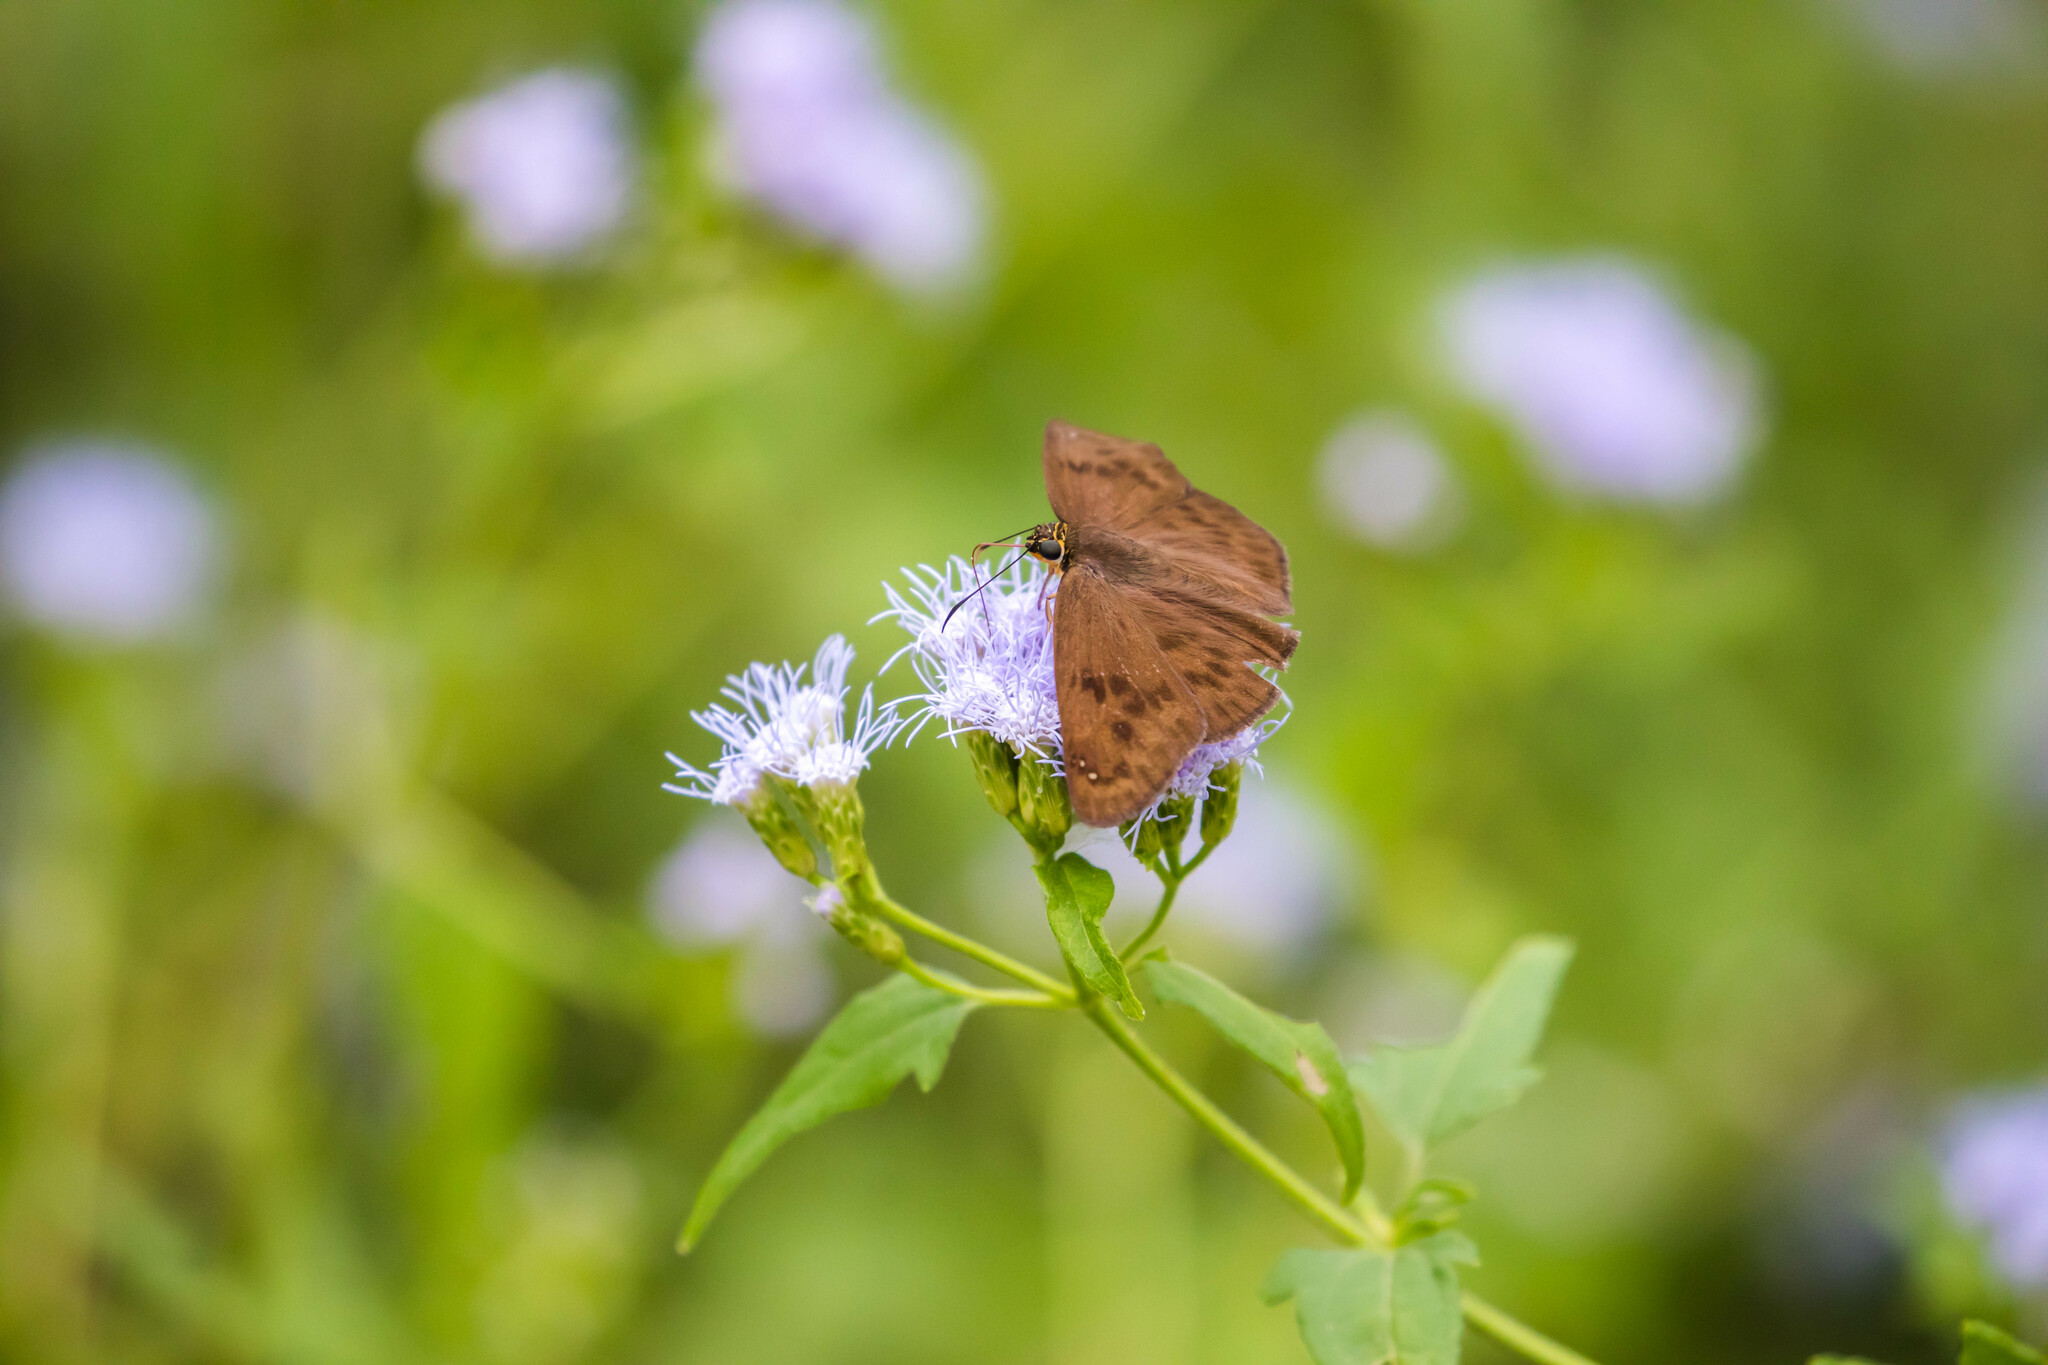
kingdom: Animalia
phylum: Arthropoda
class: Insecta
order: Lepidoptera
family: Hesperiidae
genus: Grais
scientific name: Grais stigmaticus
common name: Hermit skipper
